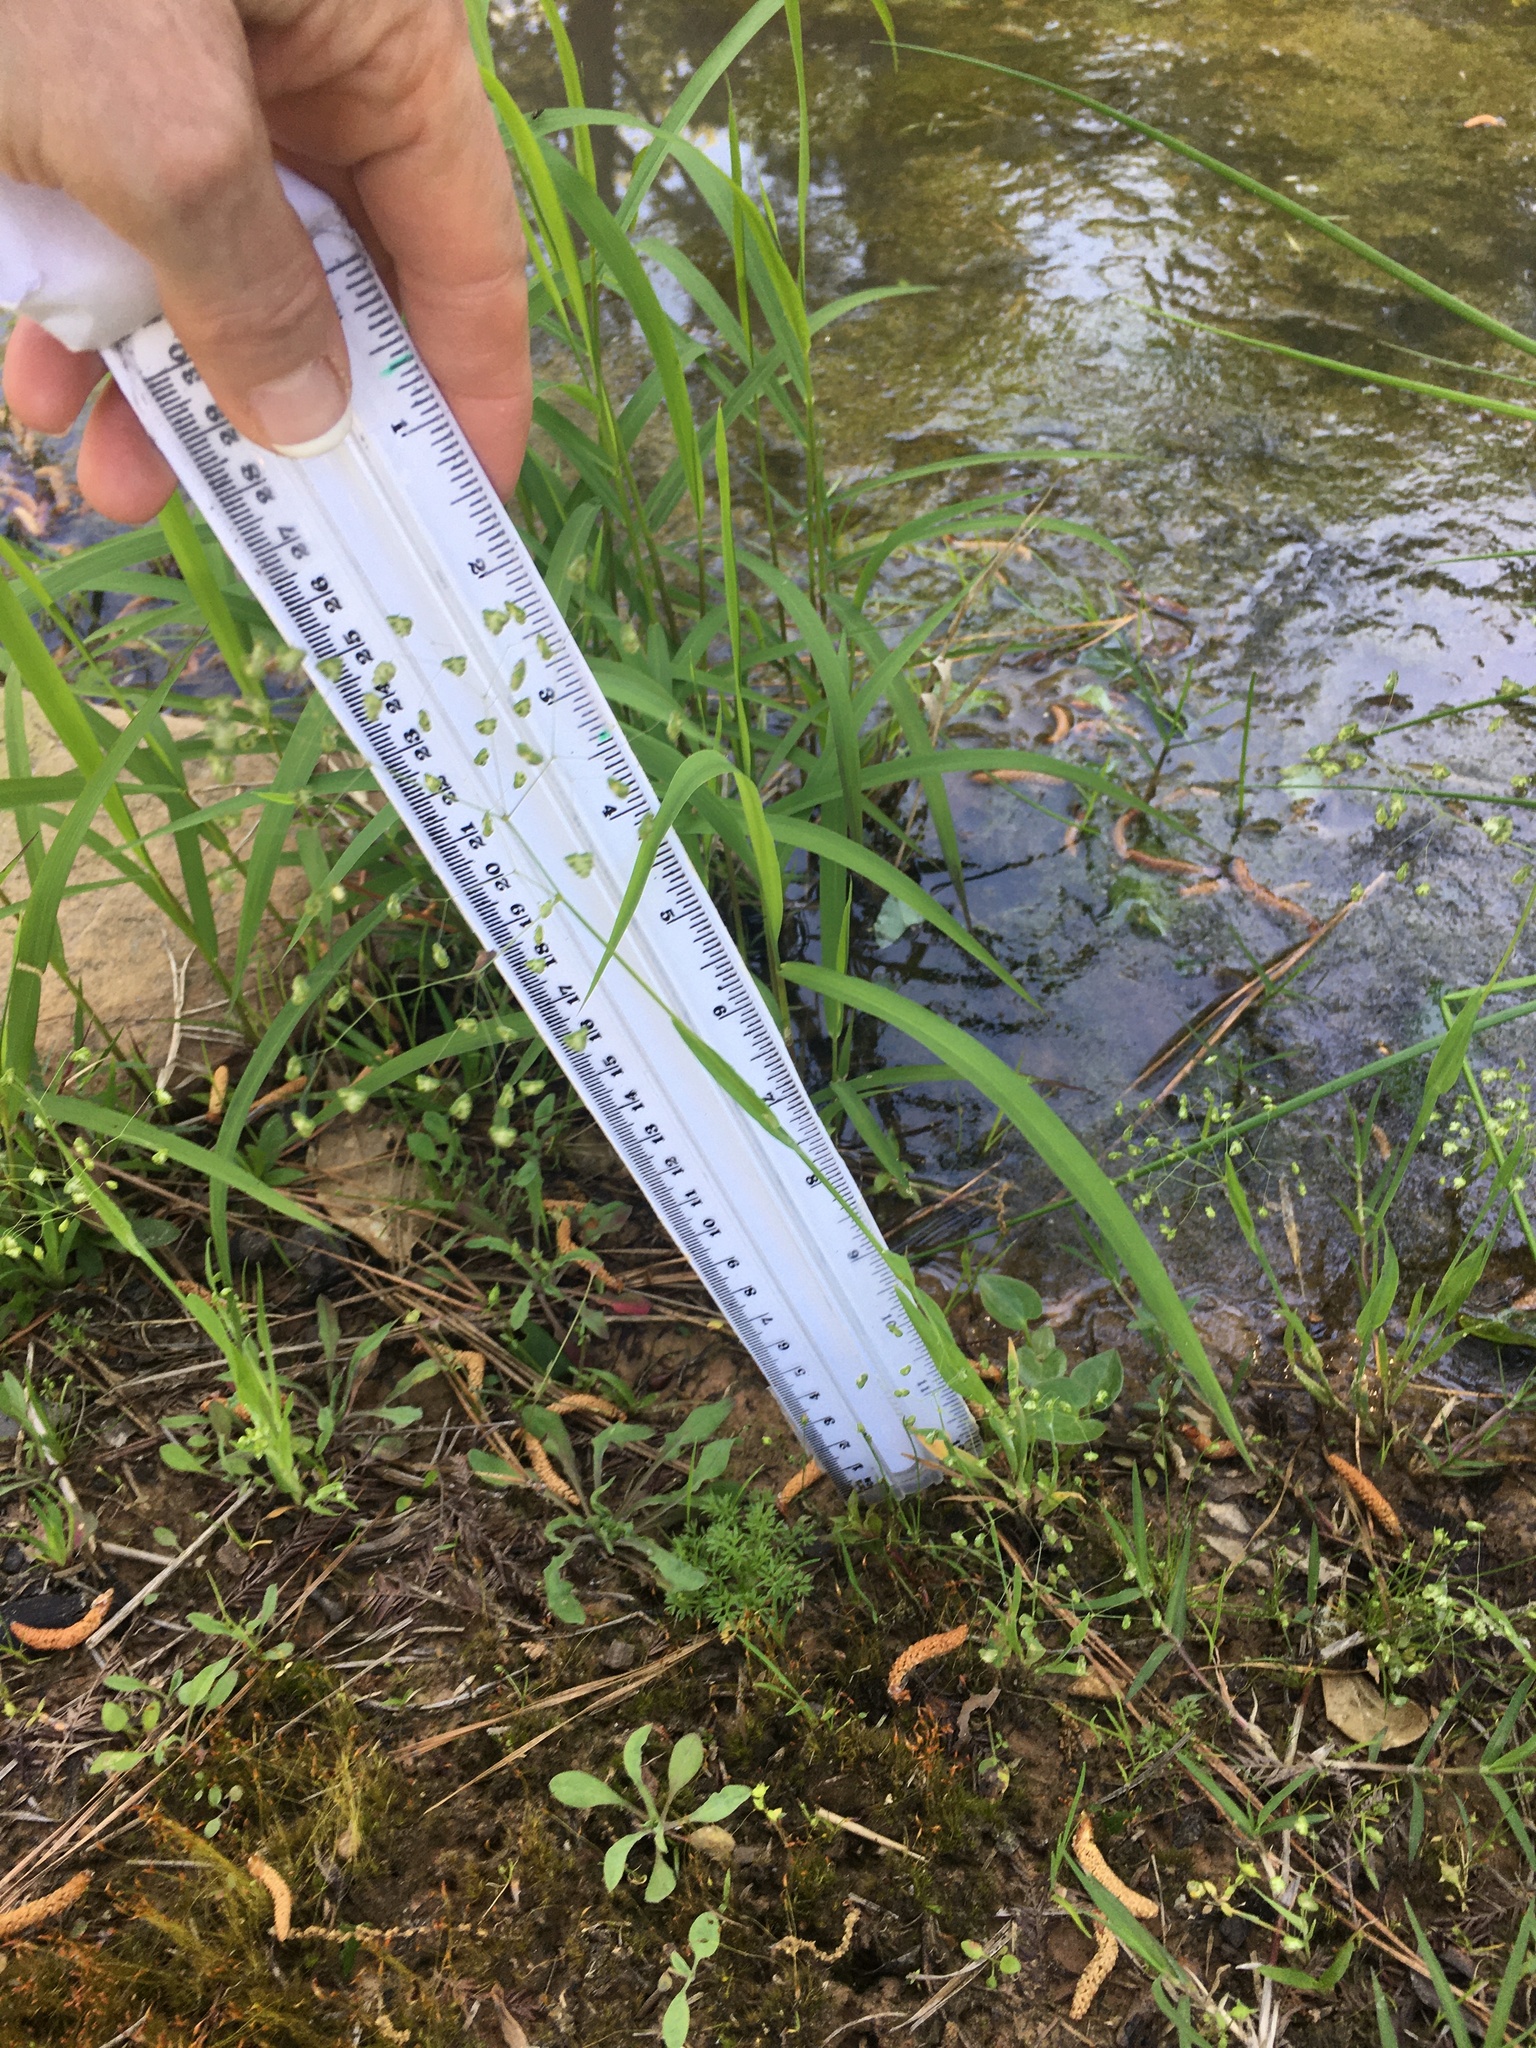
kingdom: Plantae
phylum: Tracheophyta
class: Liliopsida
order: Poales
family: Poaceae
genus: Briza
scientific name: Briza minor
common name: Lesser quaking-grass
